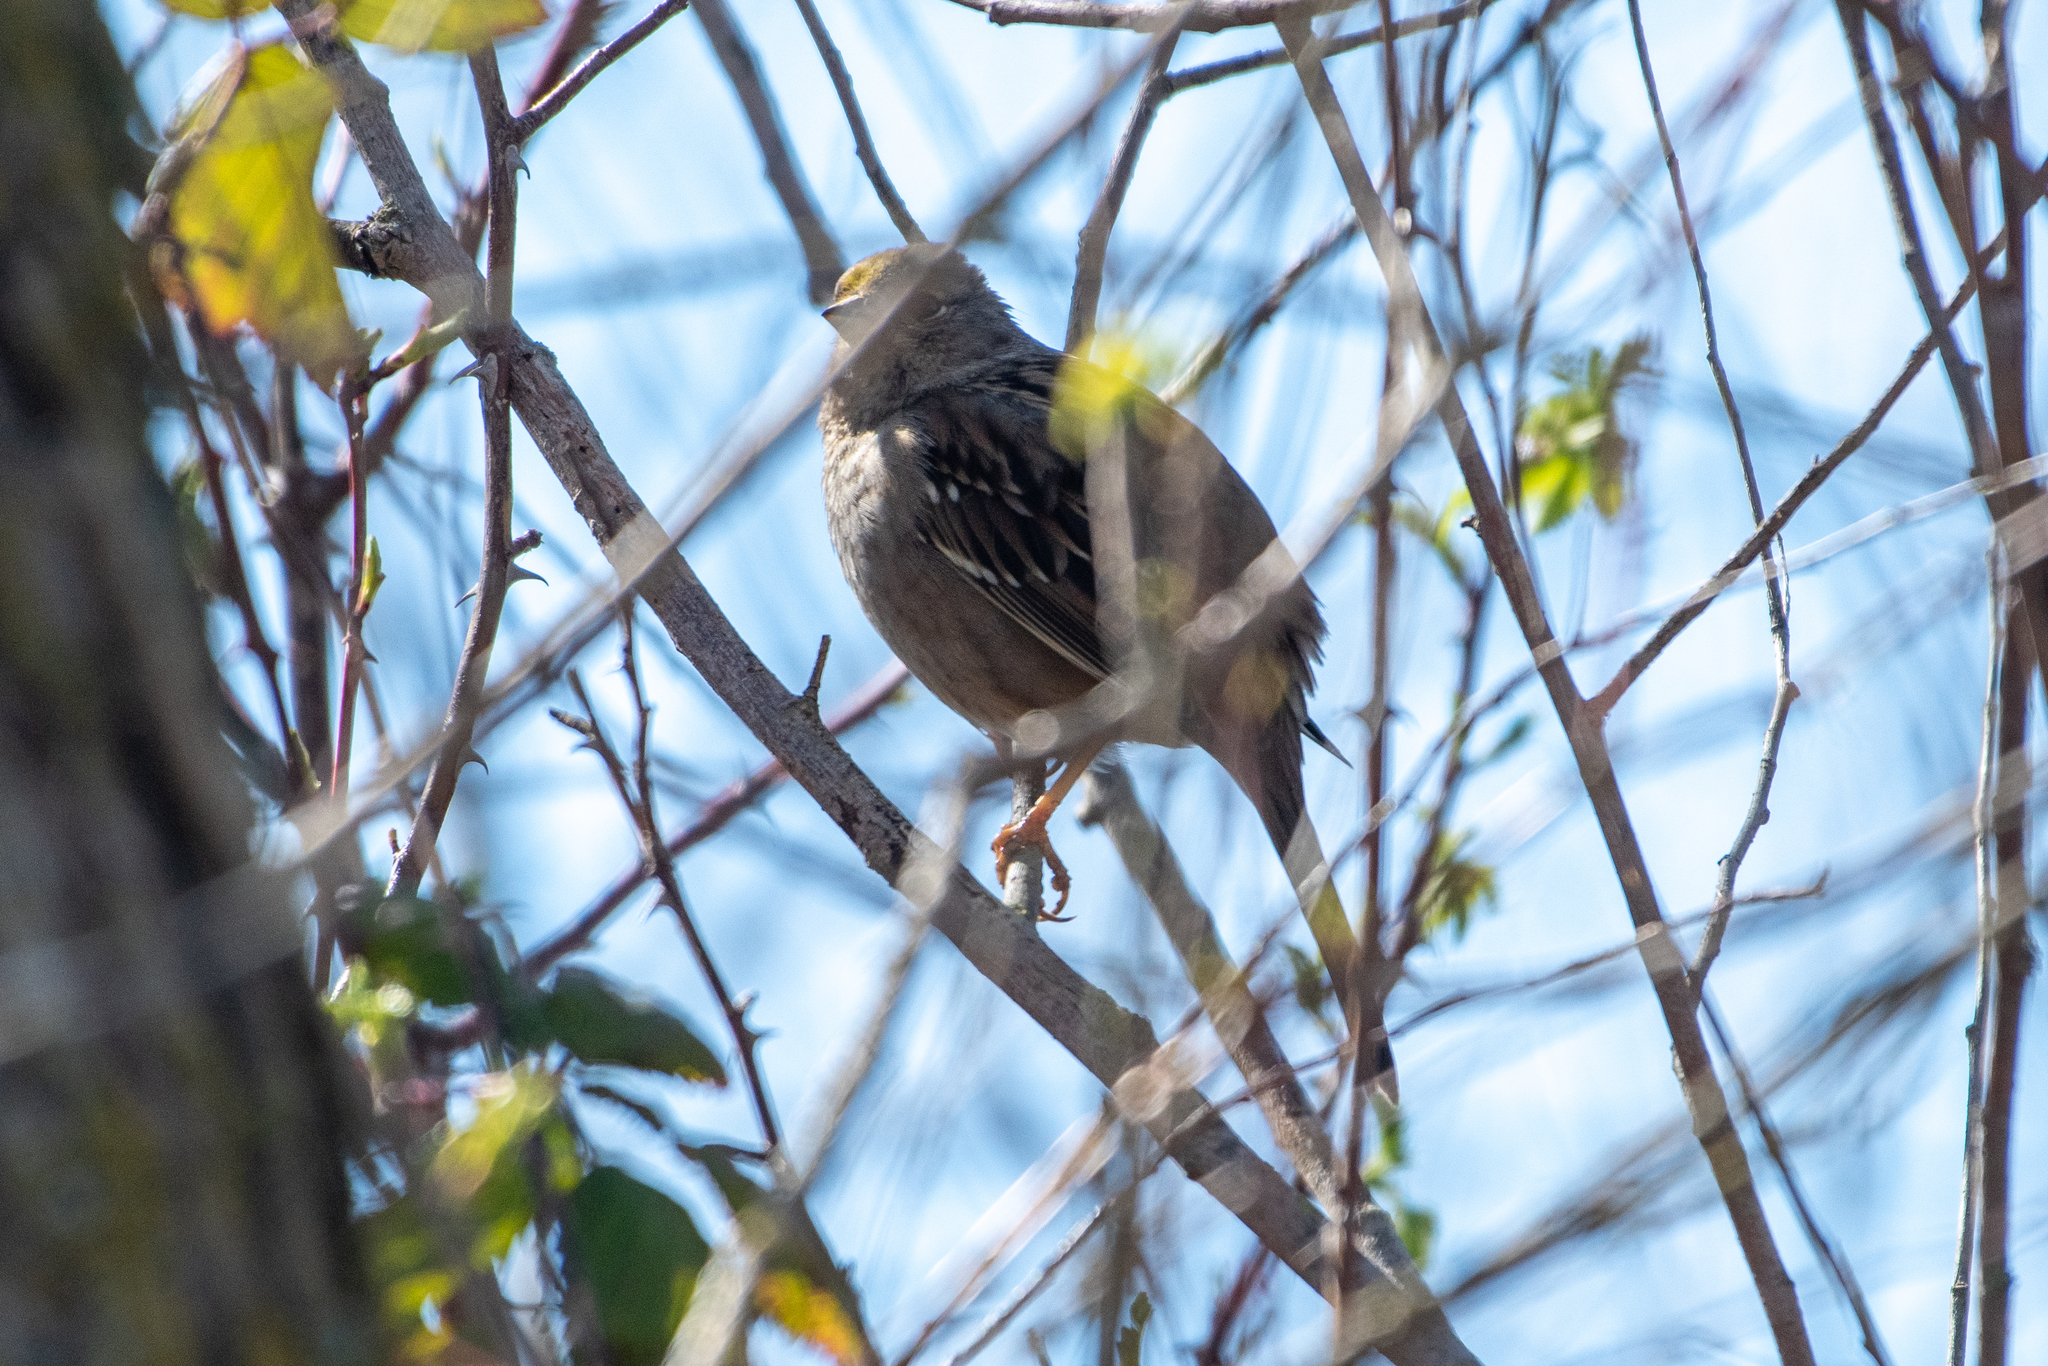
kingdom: Animalia
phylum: Chordata
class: Aves
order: Passeriformes
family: Passerellidae
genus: Zonotrichia
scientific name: Zonotrichia atricapilla
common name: Golden-crowned sparrow
